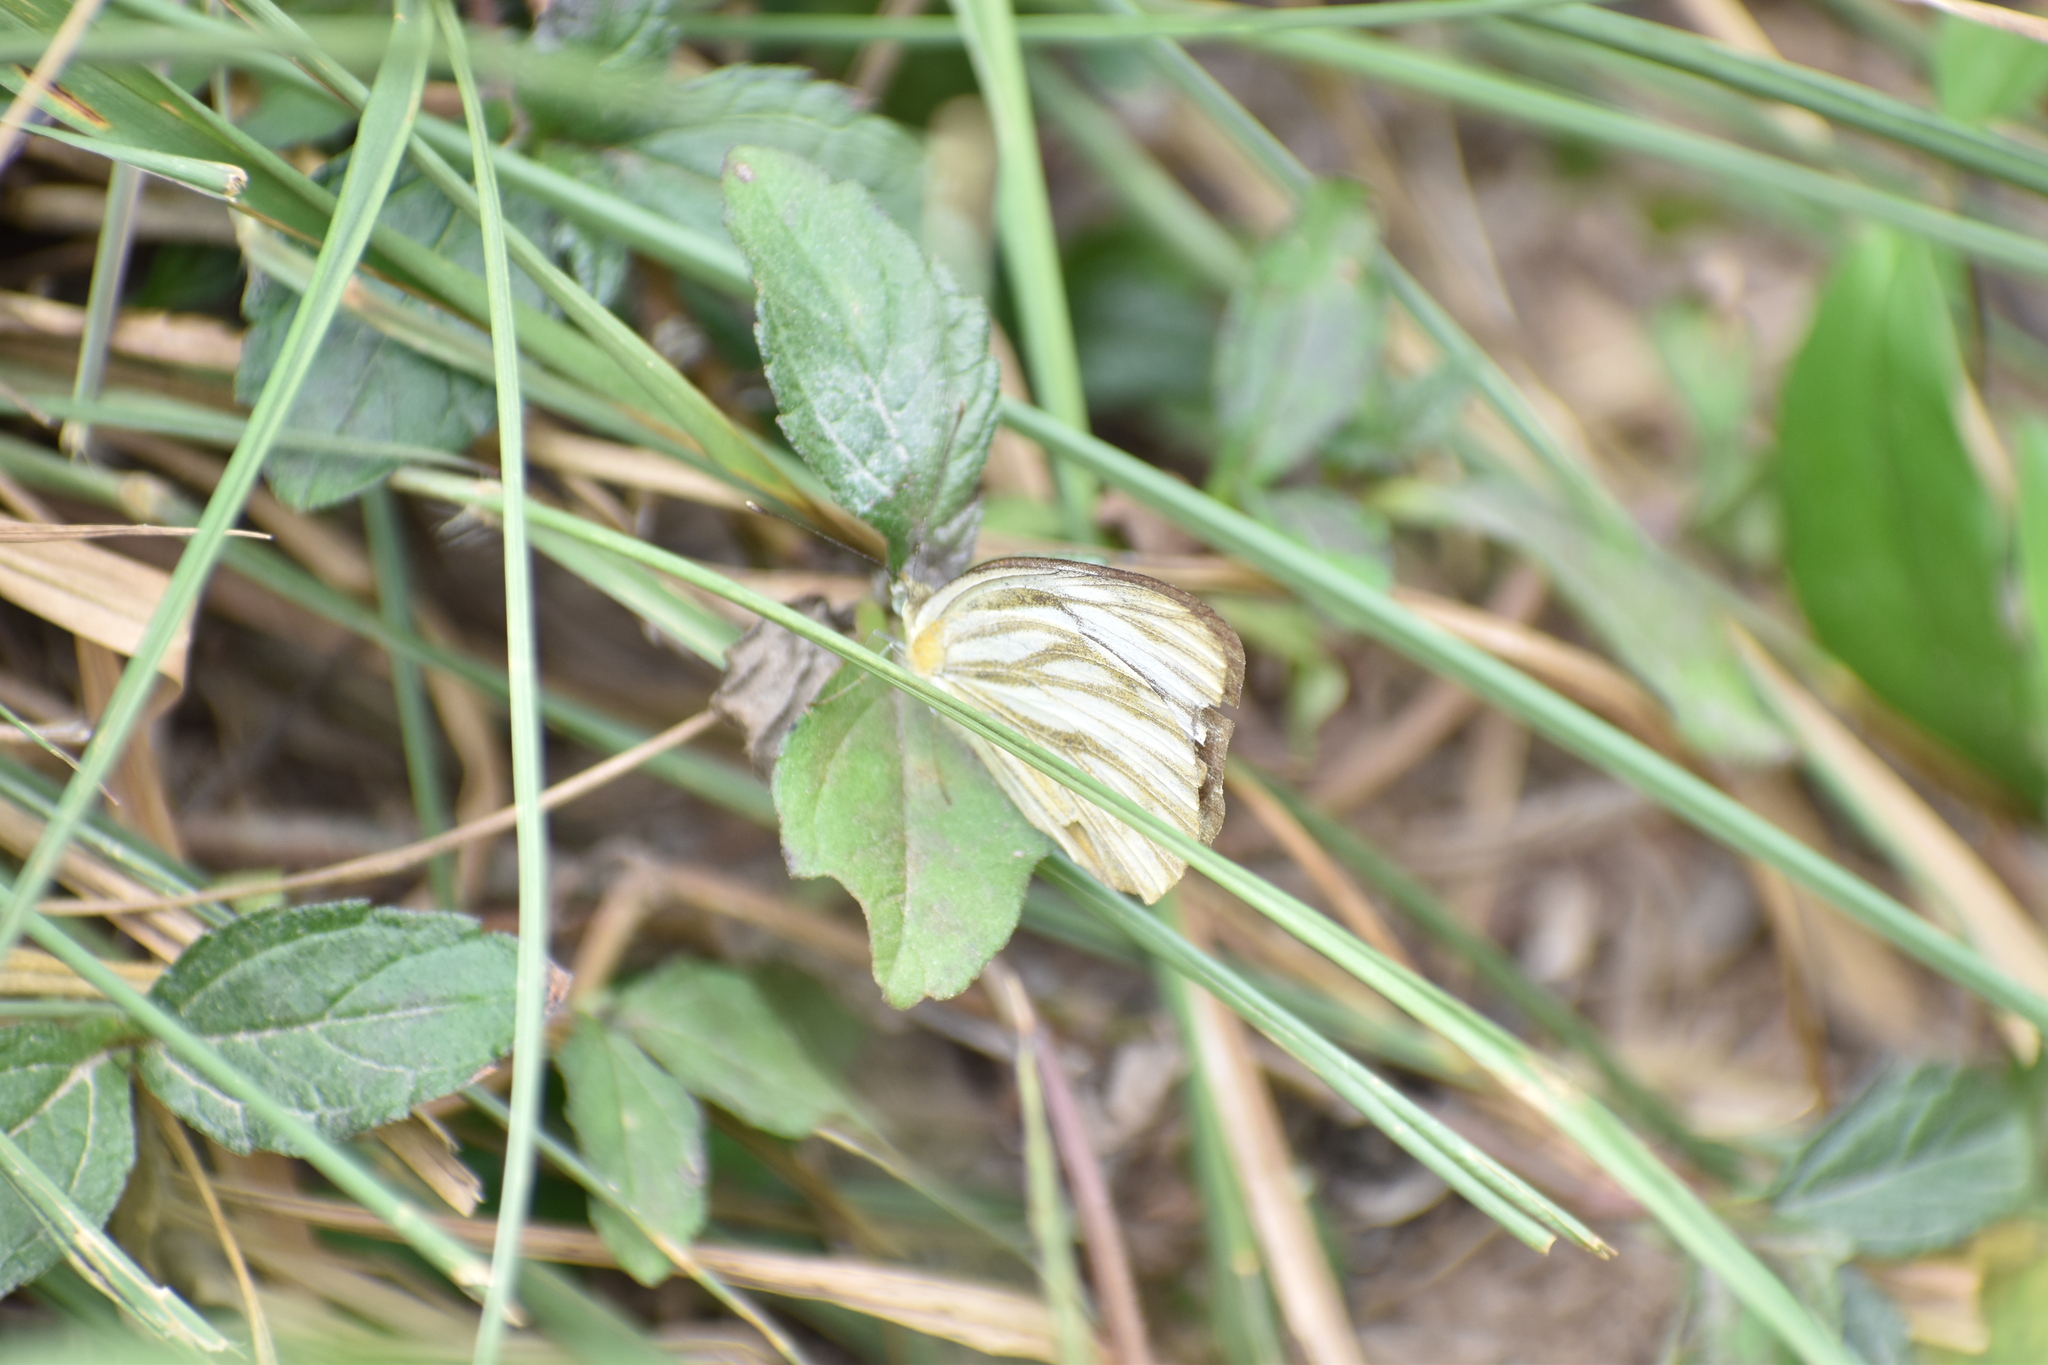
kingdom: Animalia
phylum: Arthropoda
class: Insecta
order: Lepidoptera
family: Pieridae
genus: Cepora
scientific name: Cepora nerissa
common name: Common gull
